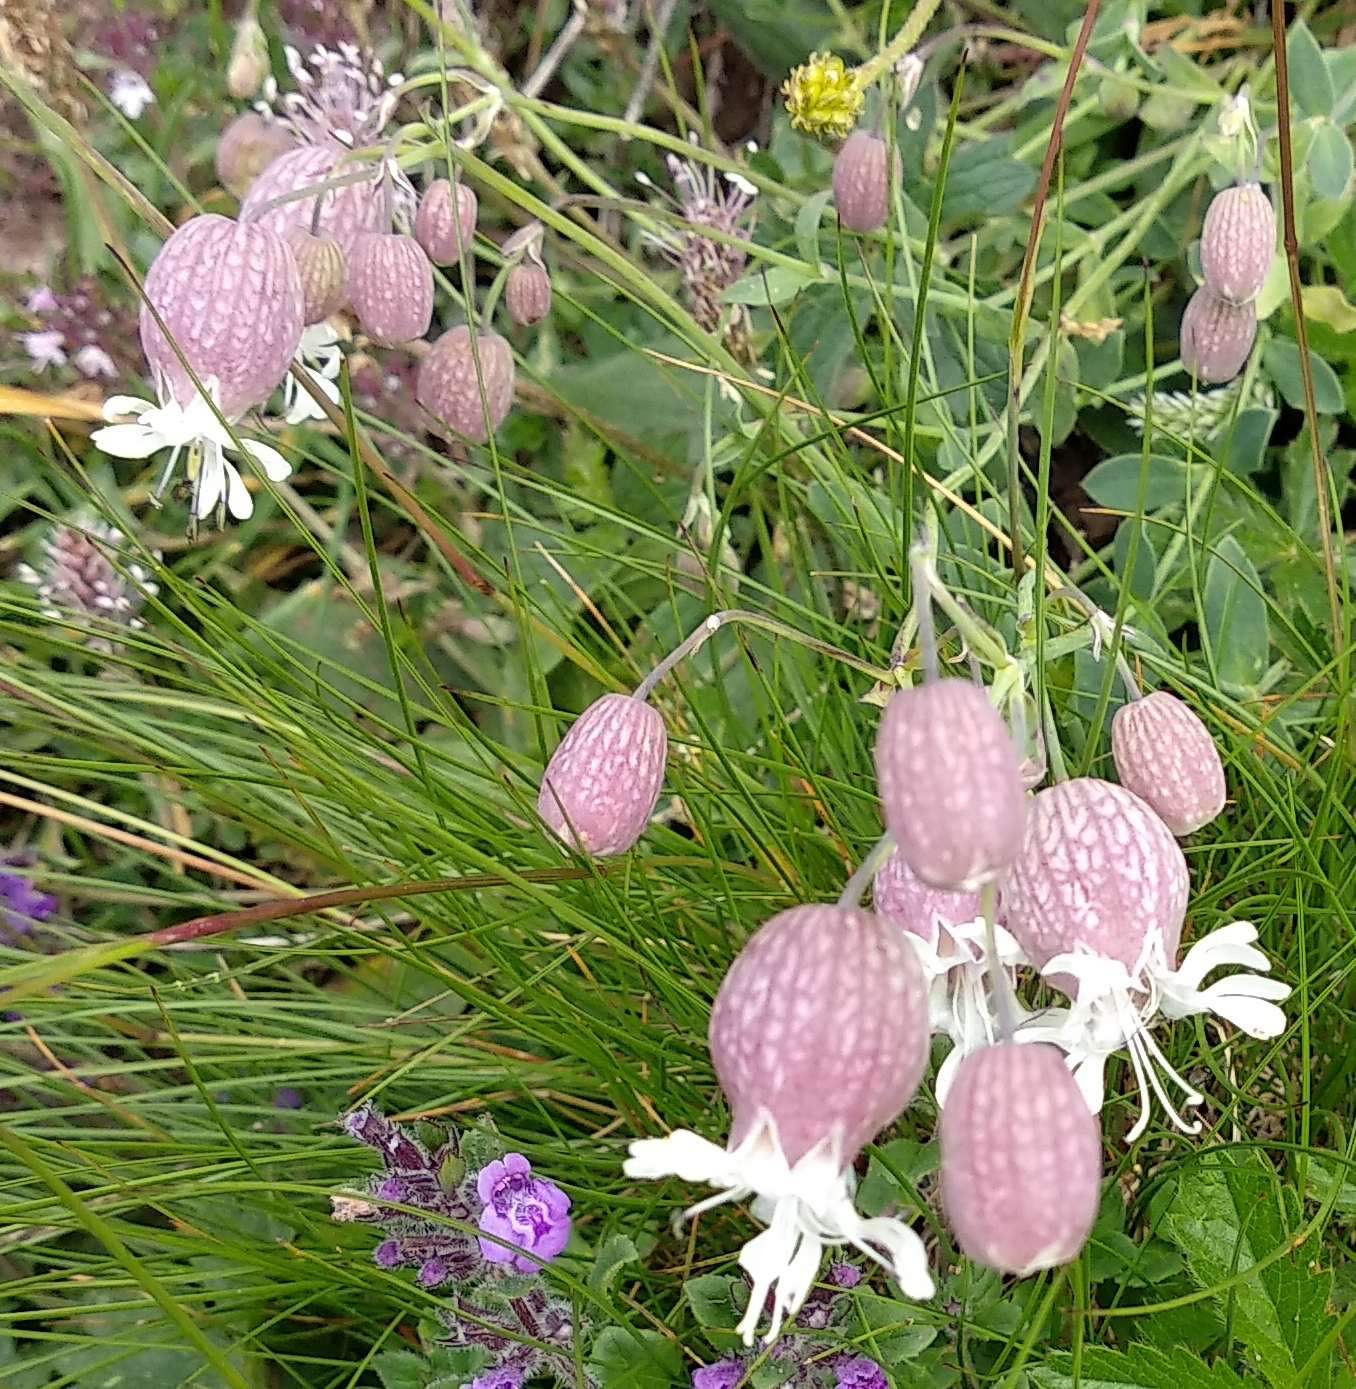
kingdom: Plantae
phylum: Tracheophyta
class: Magnoliopsida
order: Caryophyllales
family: Caryophyllaceae
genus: Silene
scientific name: Silene vulgaris
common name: Bladder campion
